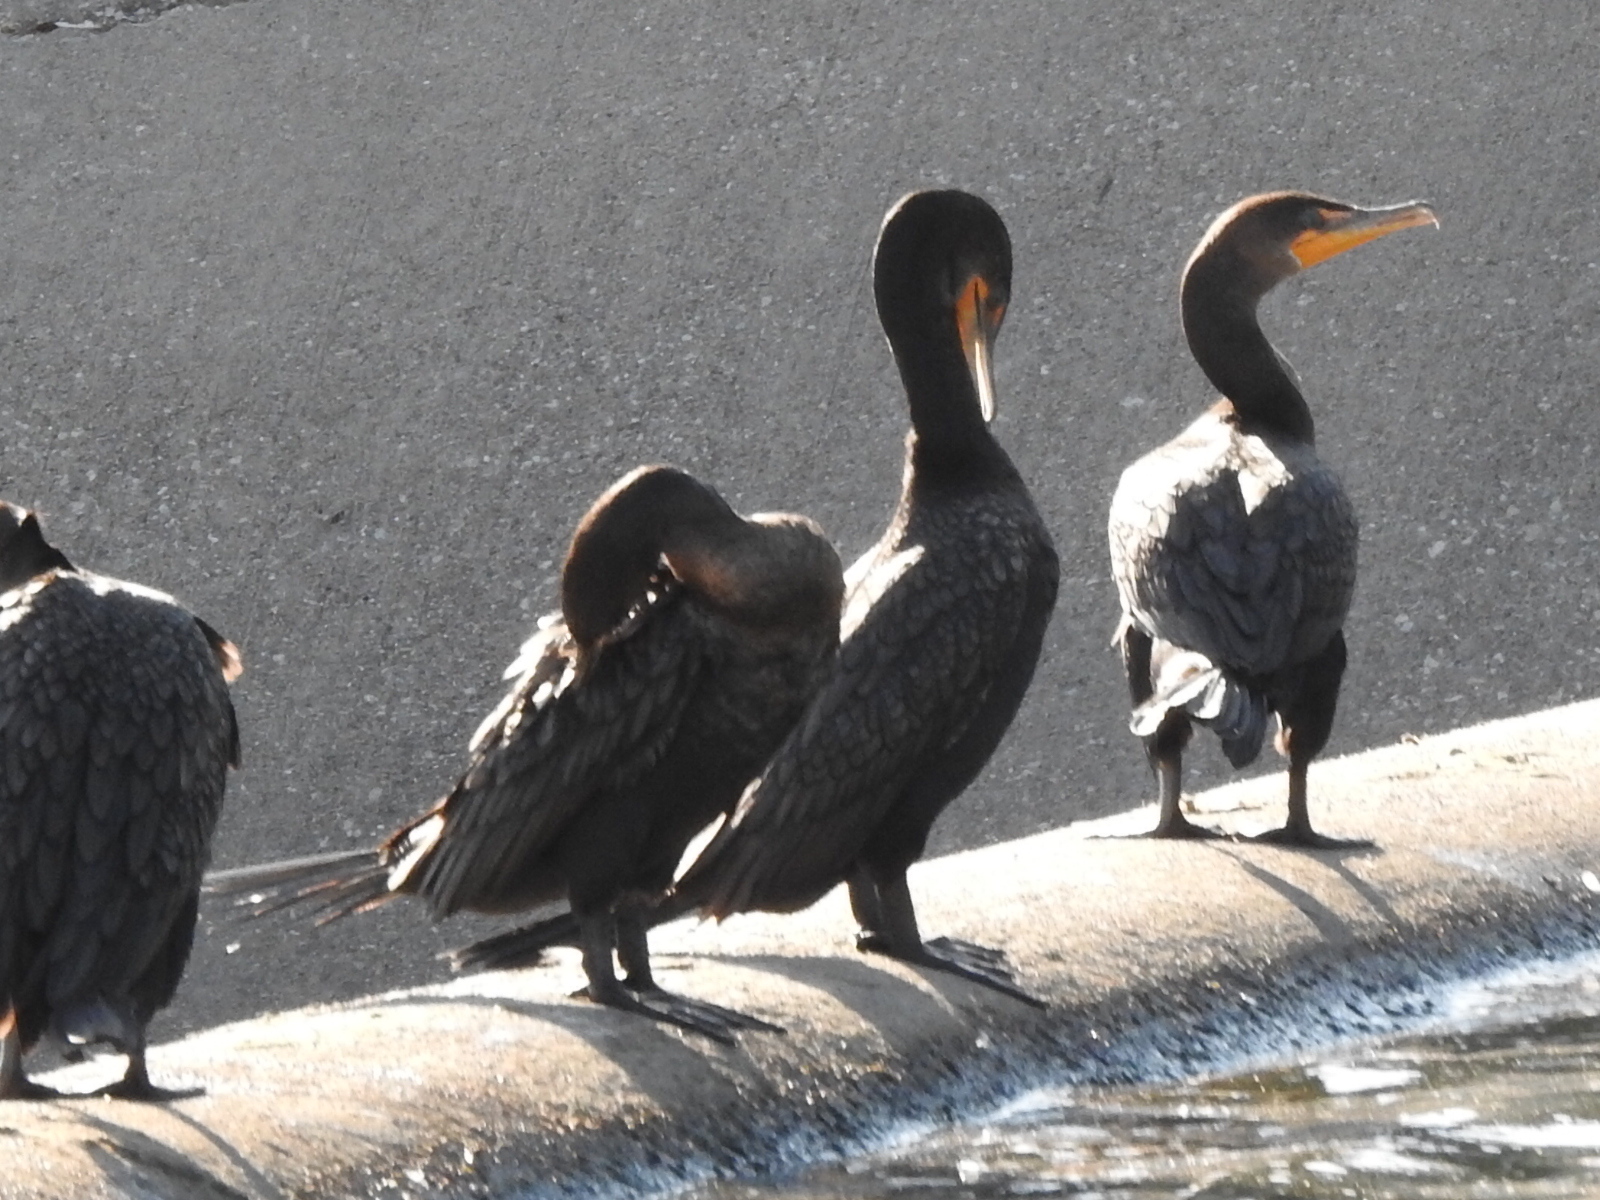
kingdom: Animalia
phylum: Chordata
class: Aves
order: Suliformes
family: Phalacrocoracidae
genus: Phalacrocorax
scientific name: Phalacrocorax auritus
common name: Double-crested cormorant
